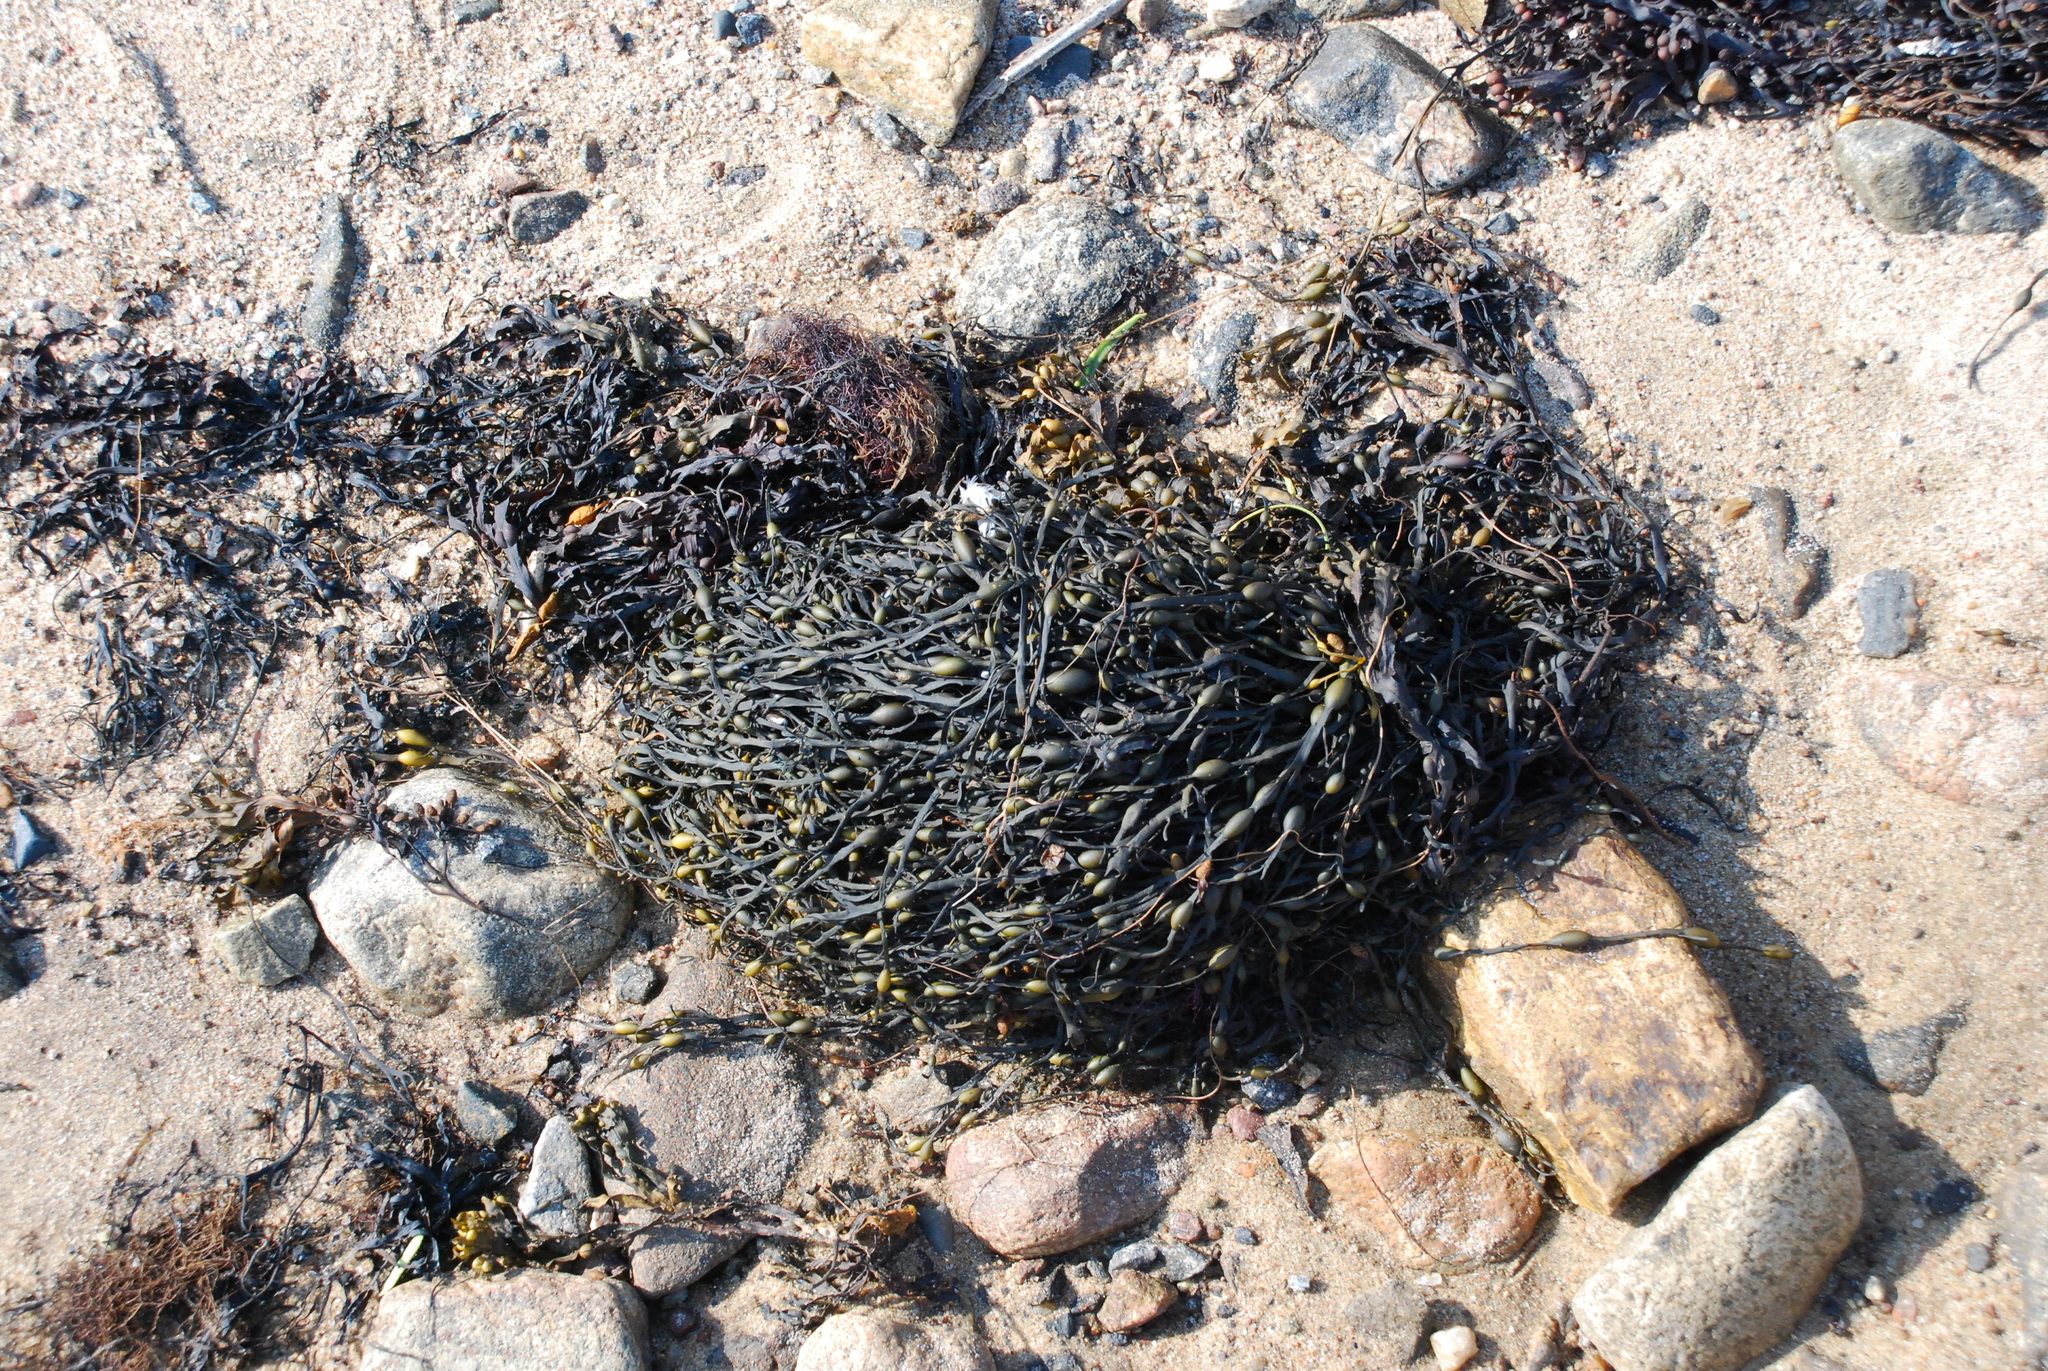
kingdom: Chromista
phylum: Ochrophyta
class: Phaeophyceae
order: Fucales
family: Fucaceae
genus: Ascophyllum
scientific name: Ascophyllum nodosum
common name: Knotted wrack
